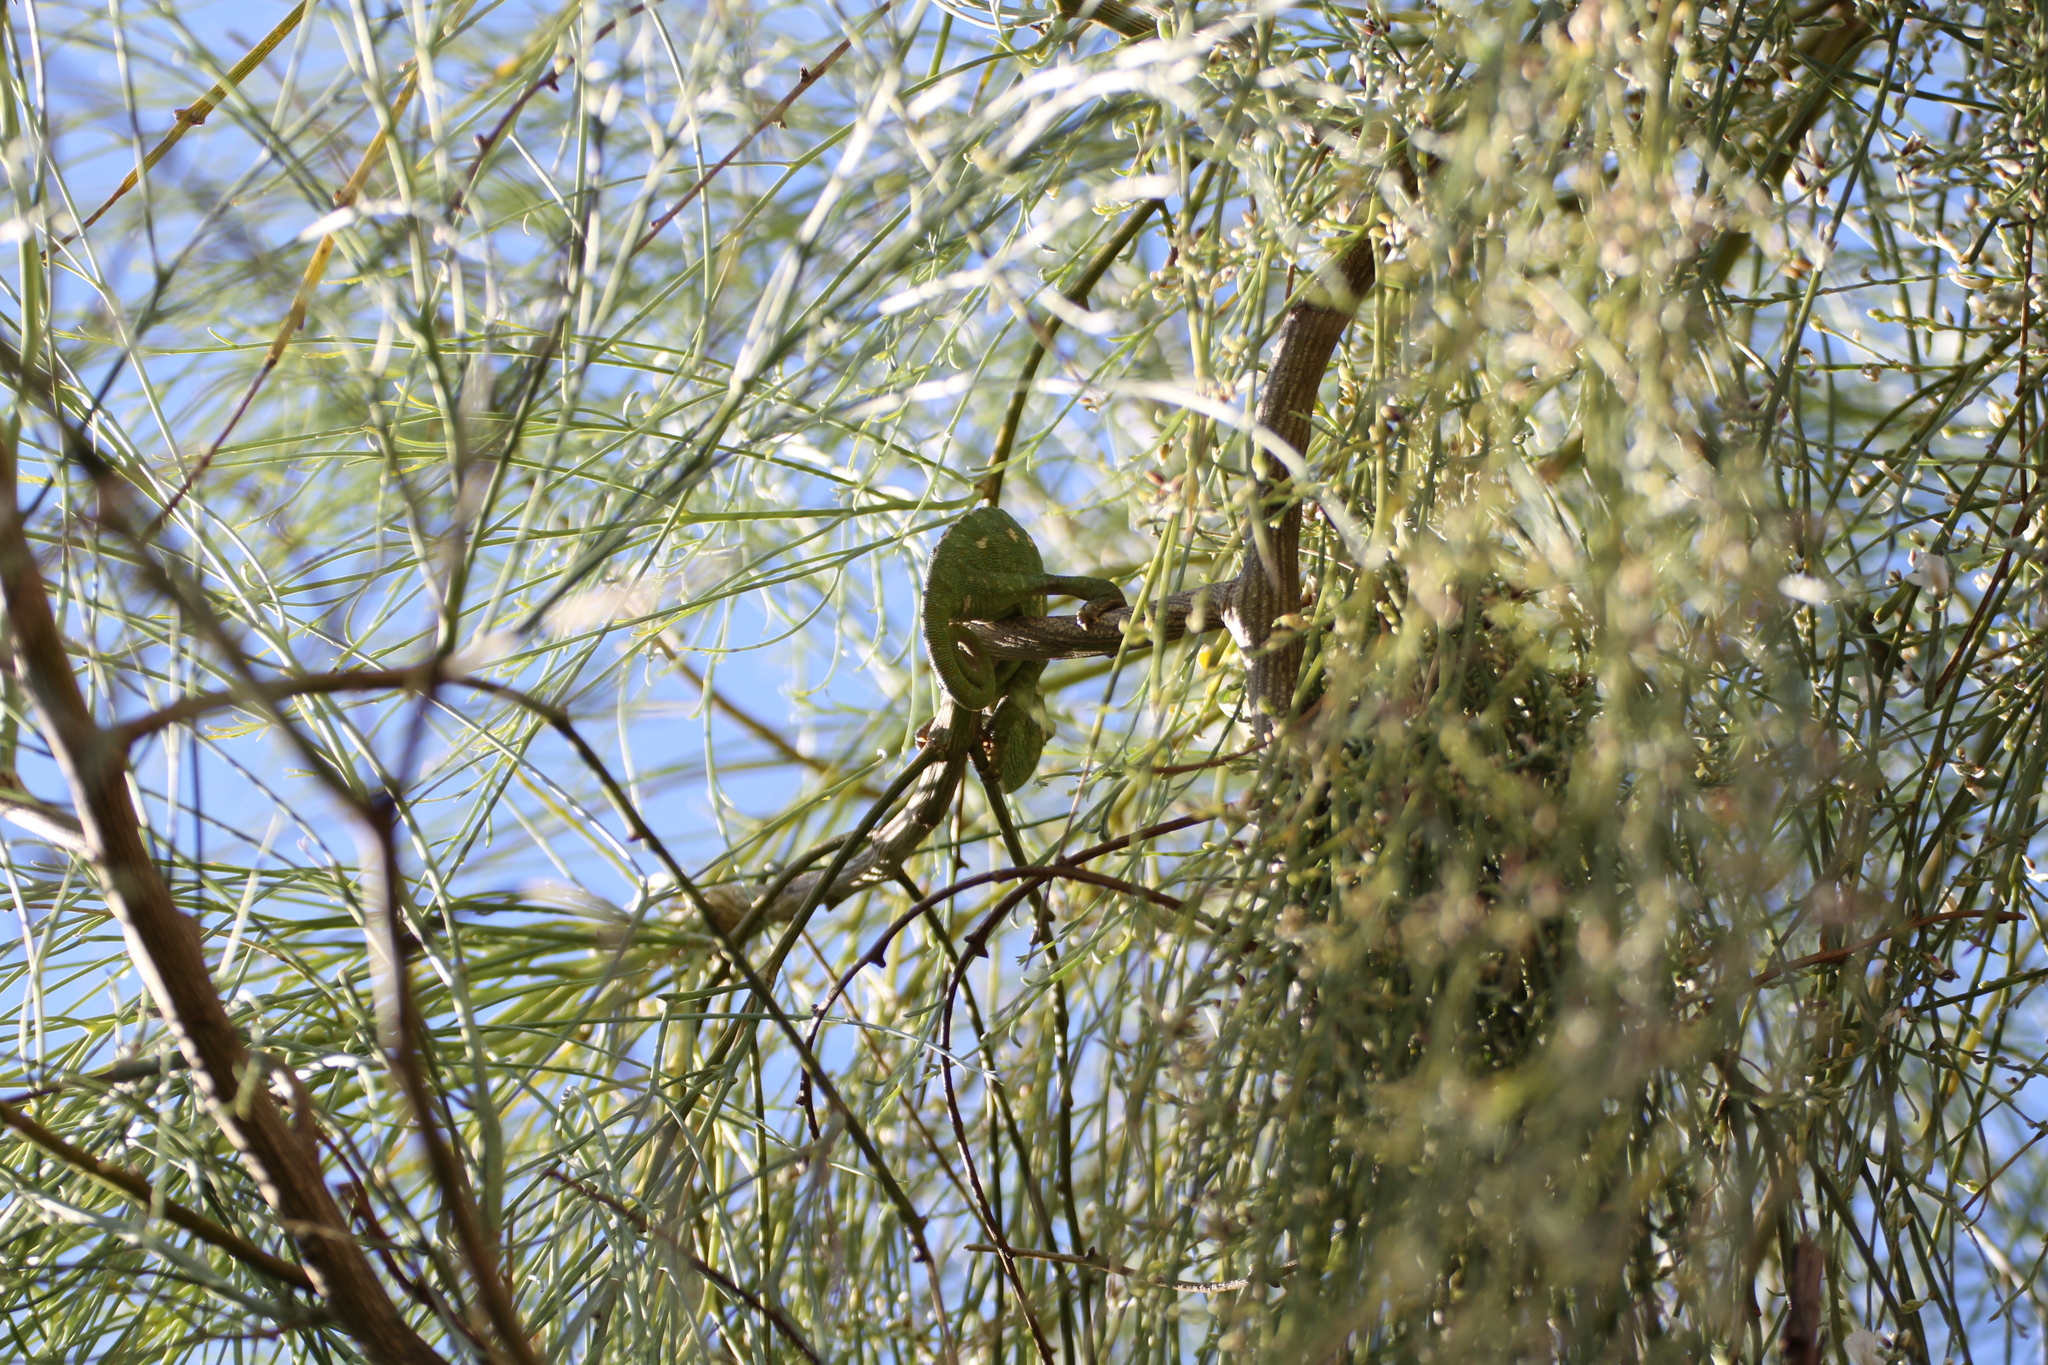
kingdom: Animalia
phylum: Chordata
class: Squamata
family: Chamaeleonidae
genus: Chamaeleo
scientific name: Chamaeleo chamaeleon
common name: Mediterranean chameleon
